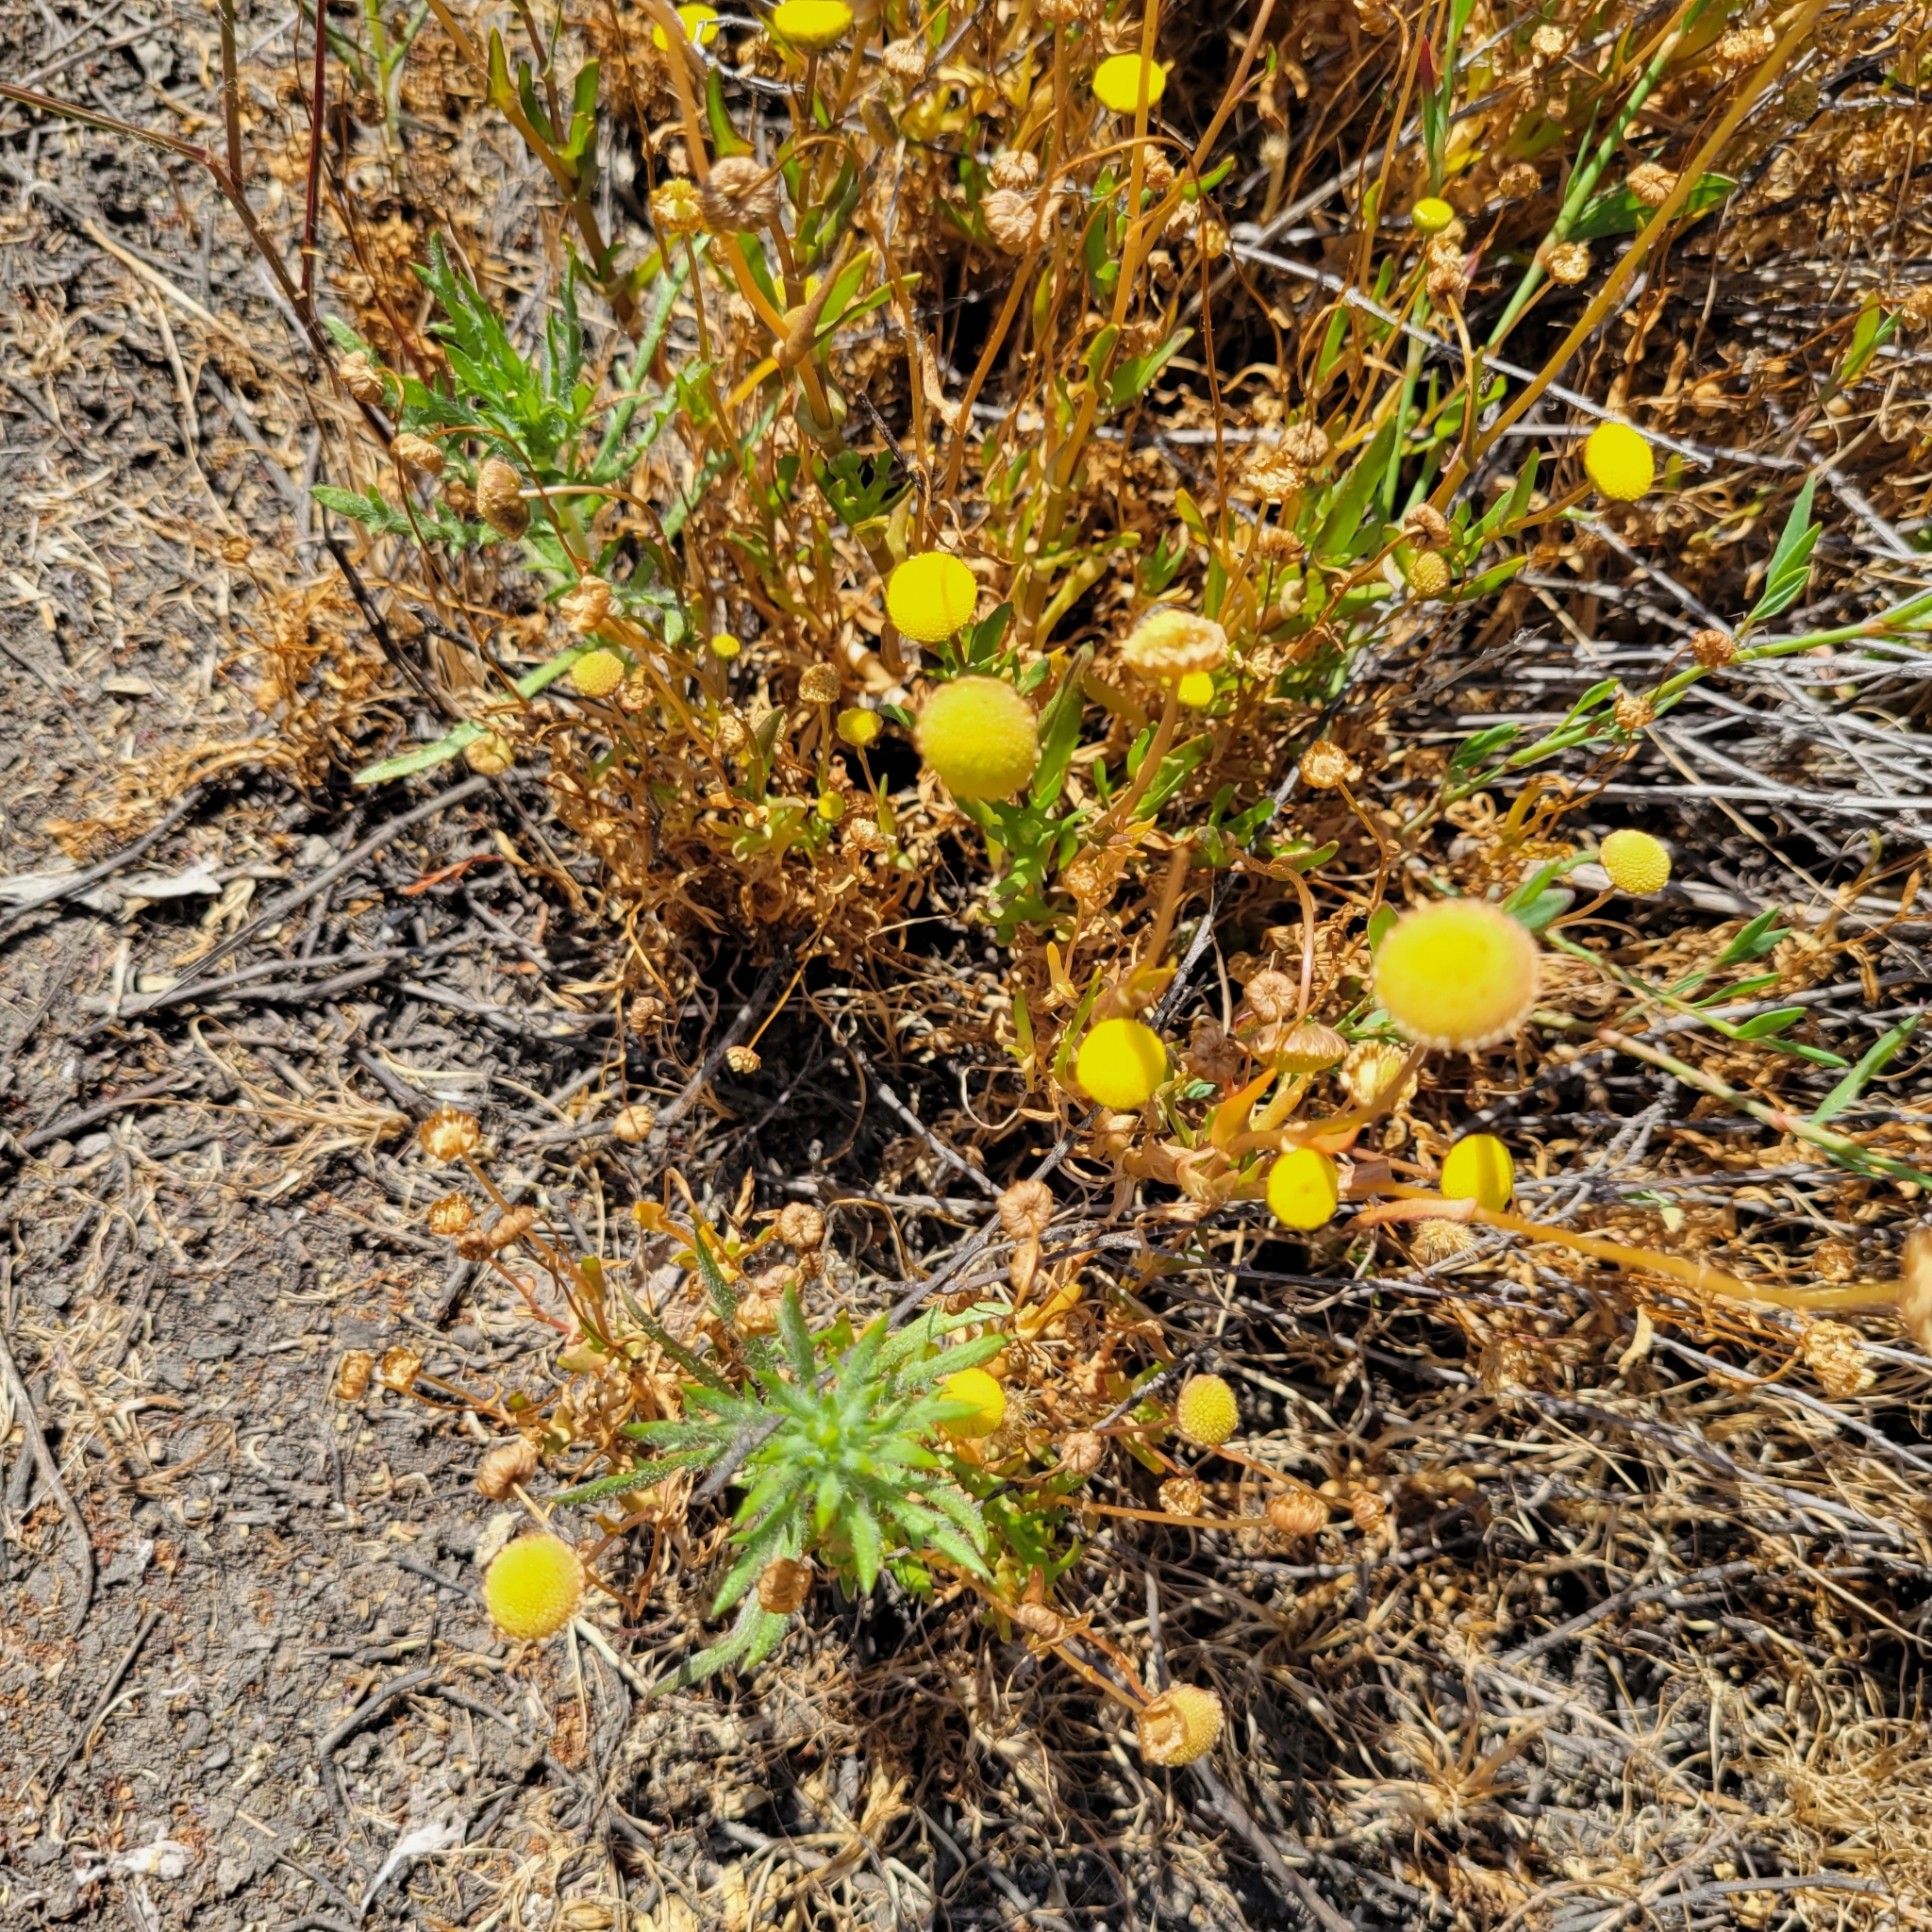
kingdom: Plantae
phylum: Tracheophyta
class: Magnoliopsida
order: Asterales
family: Asteraceae
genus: Cotula
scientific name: Cotula coronopifolia
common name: Buttonweed
